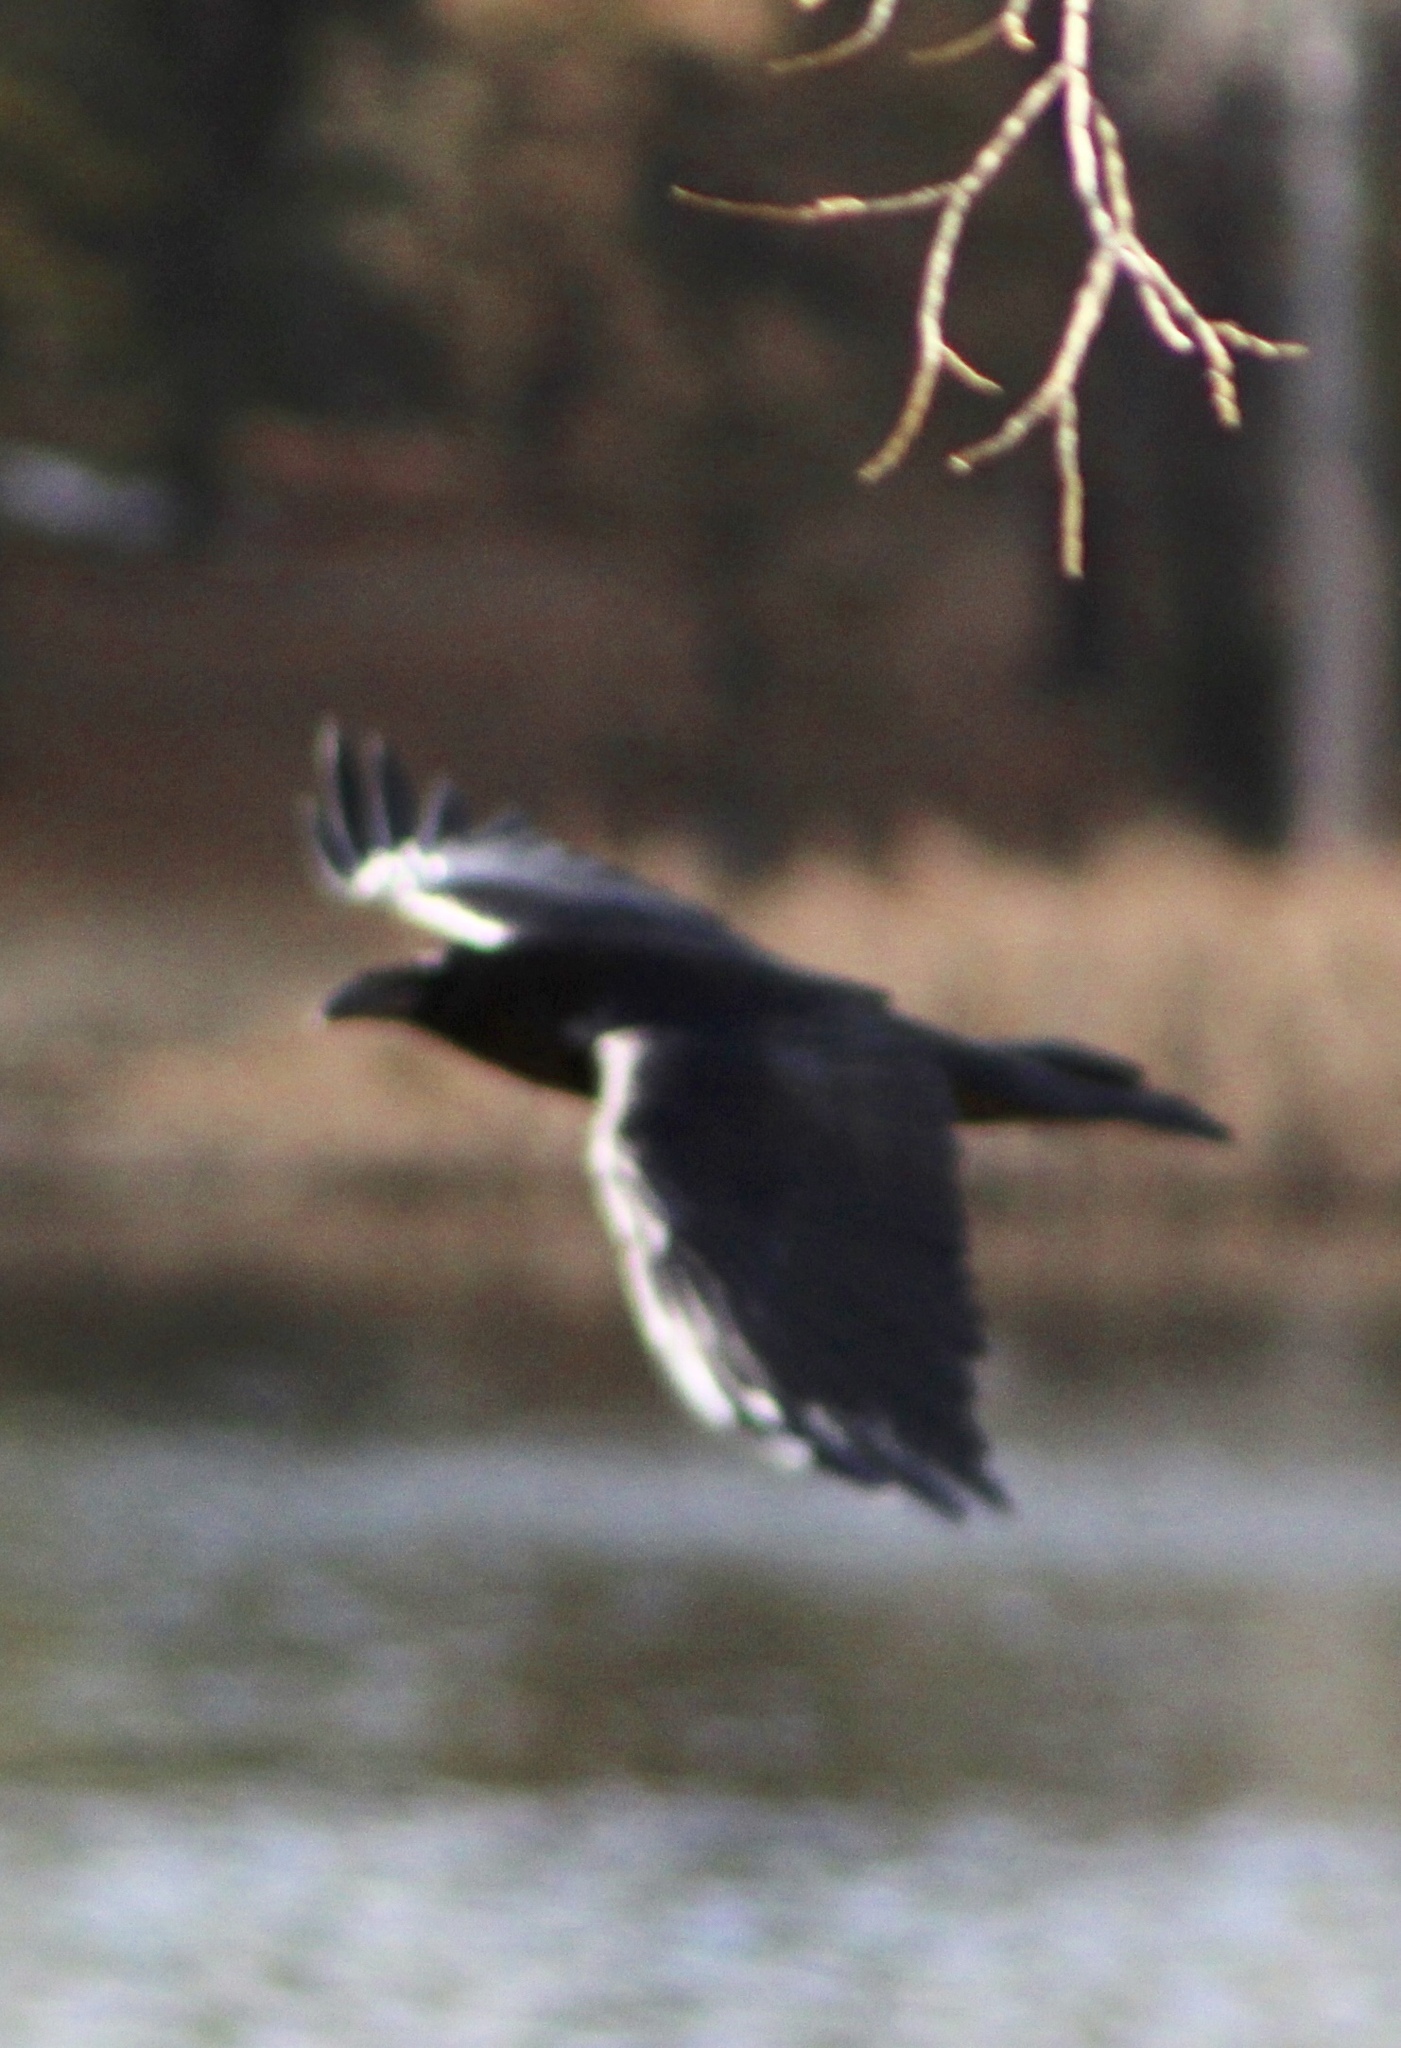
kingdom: Animalia
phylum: Chordata
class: Aves
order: Passeriformes
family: Corvidae
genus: Corvus
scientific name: Corvus corax
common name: Common raven
